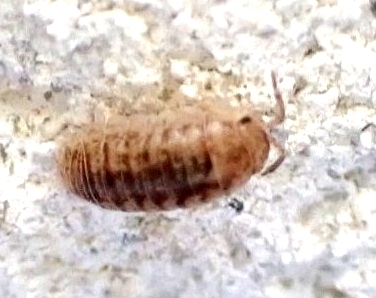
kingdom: Animalia
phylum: Arthropoda
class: Malacostraca
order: Isopoda
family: Armadillidiidae
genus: Armadillidium
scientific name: Armadillidium arcangelii
